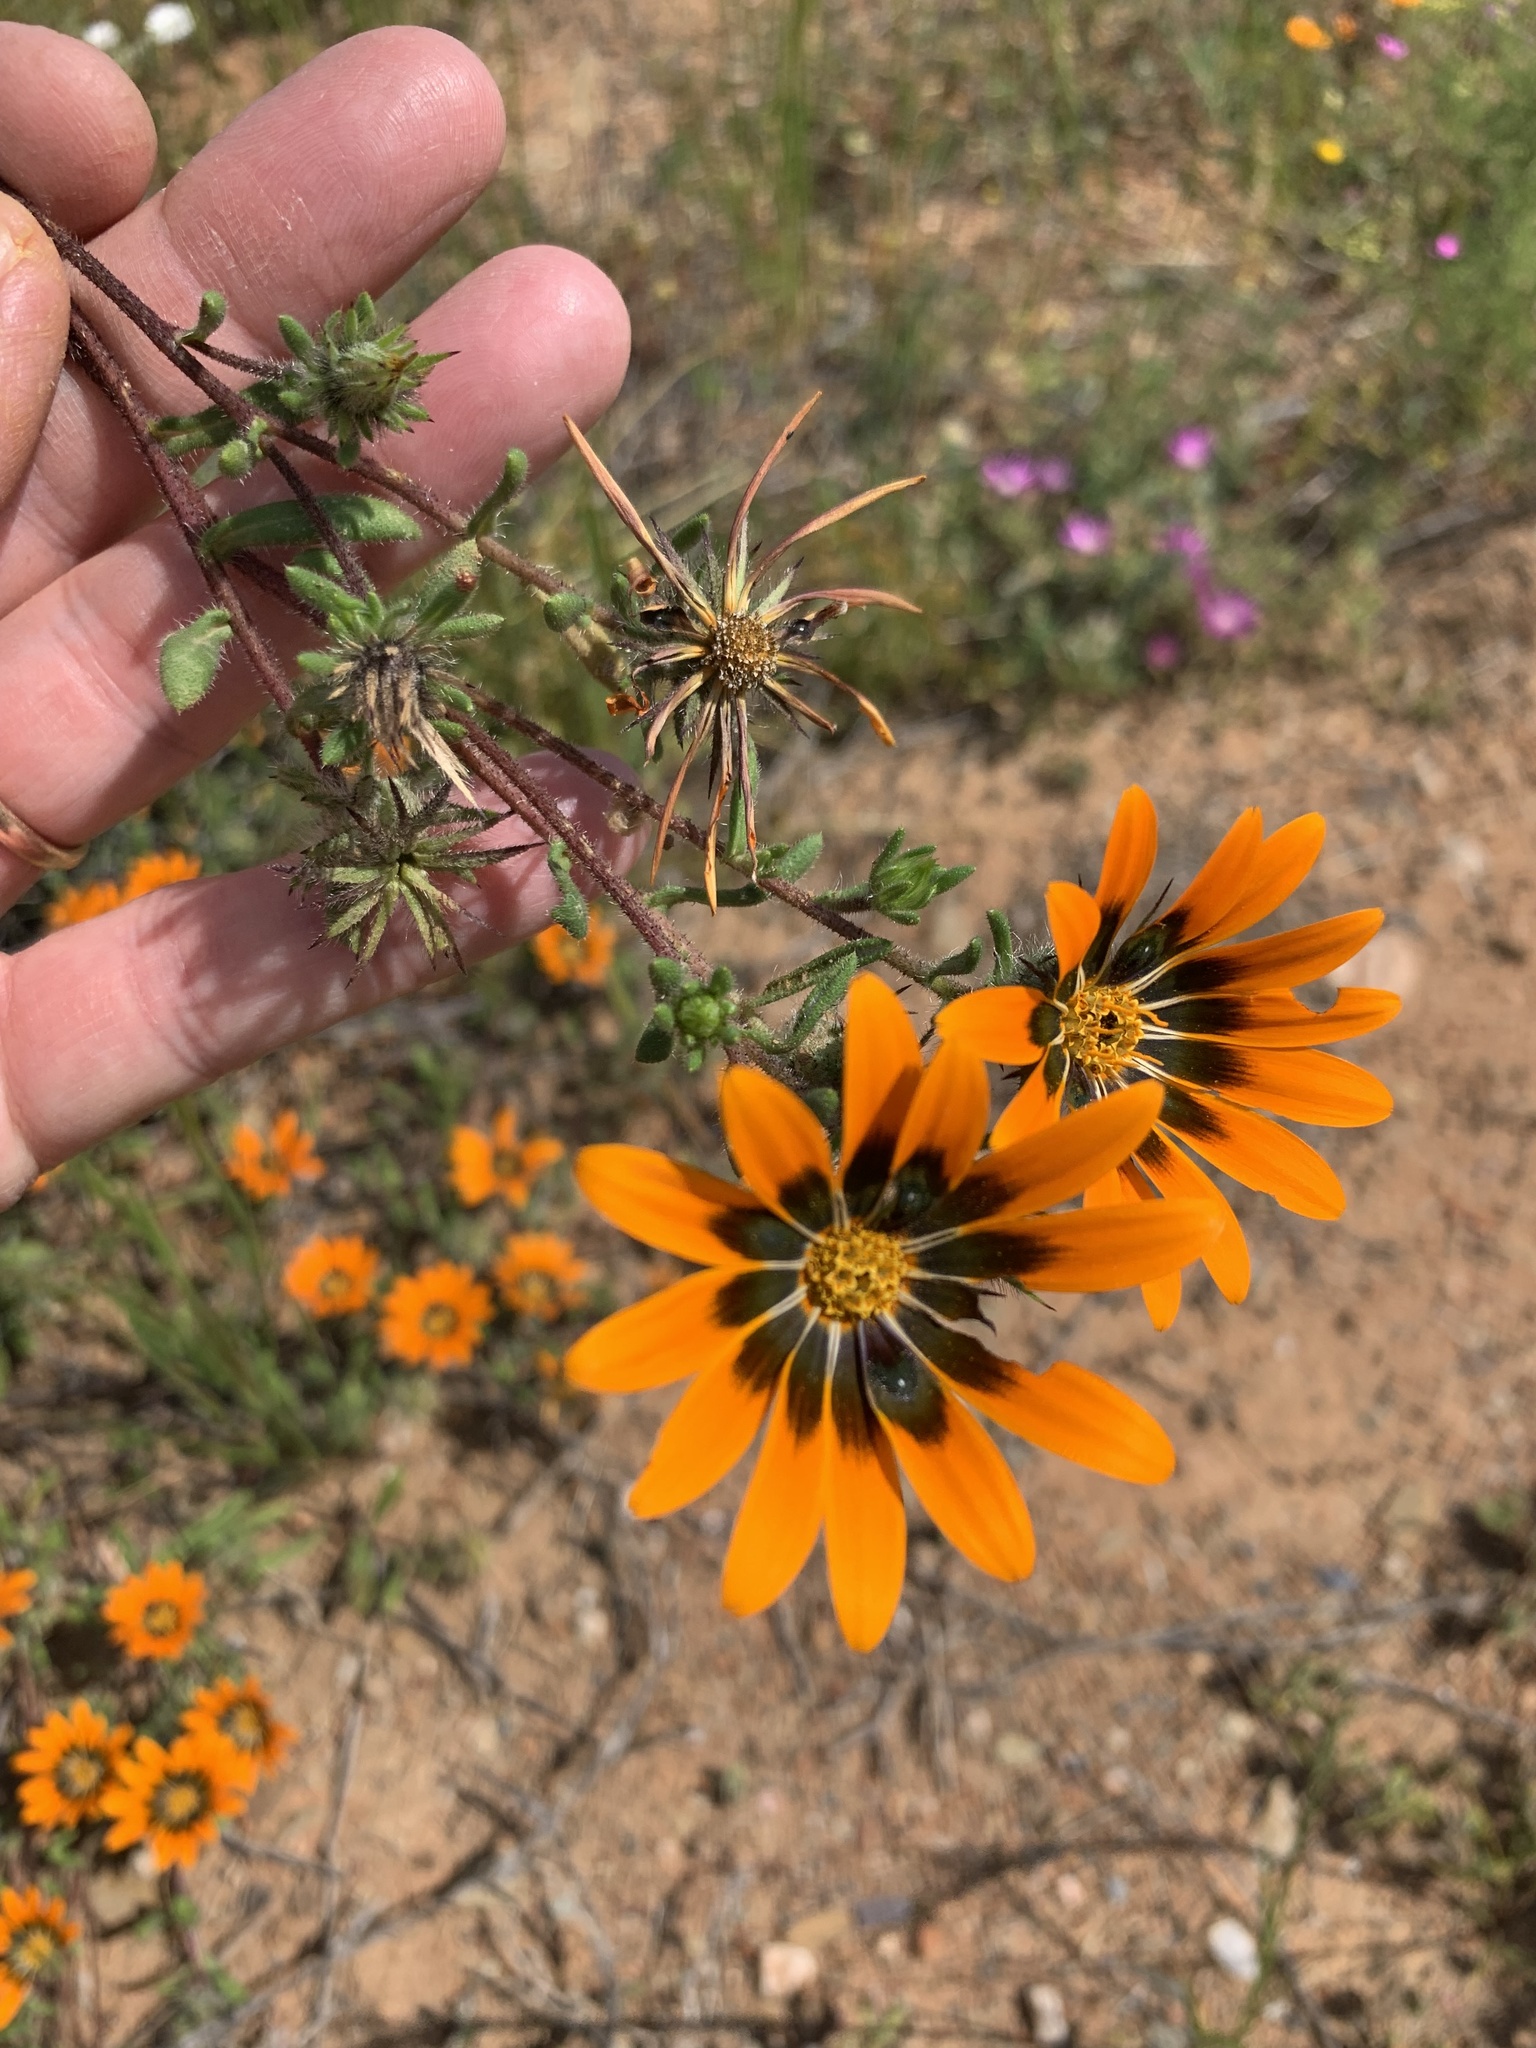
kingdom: Plantae
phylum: Tracheophyta
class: Magnoliopsida
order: Asterales
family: Asteraceae
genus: Gorteria
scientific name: Gorteria diffusa
